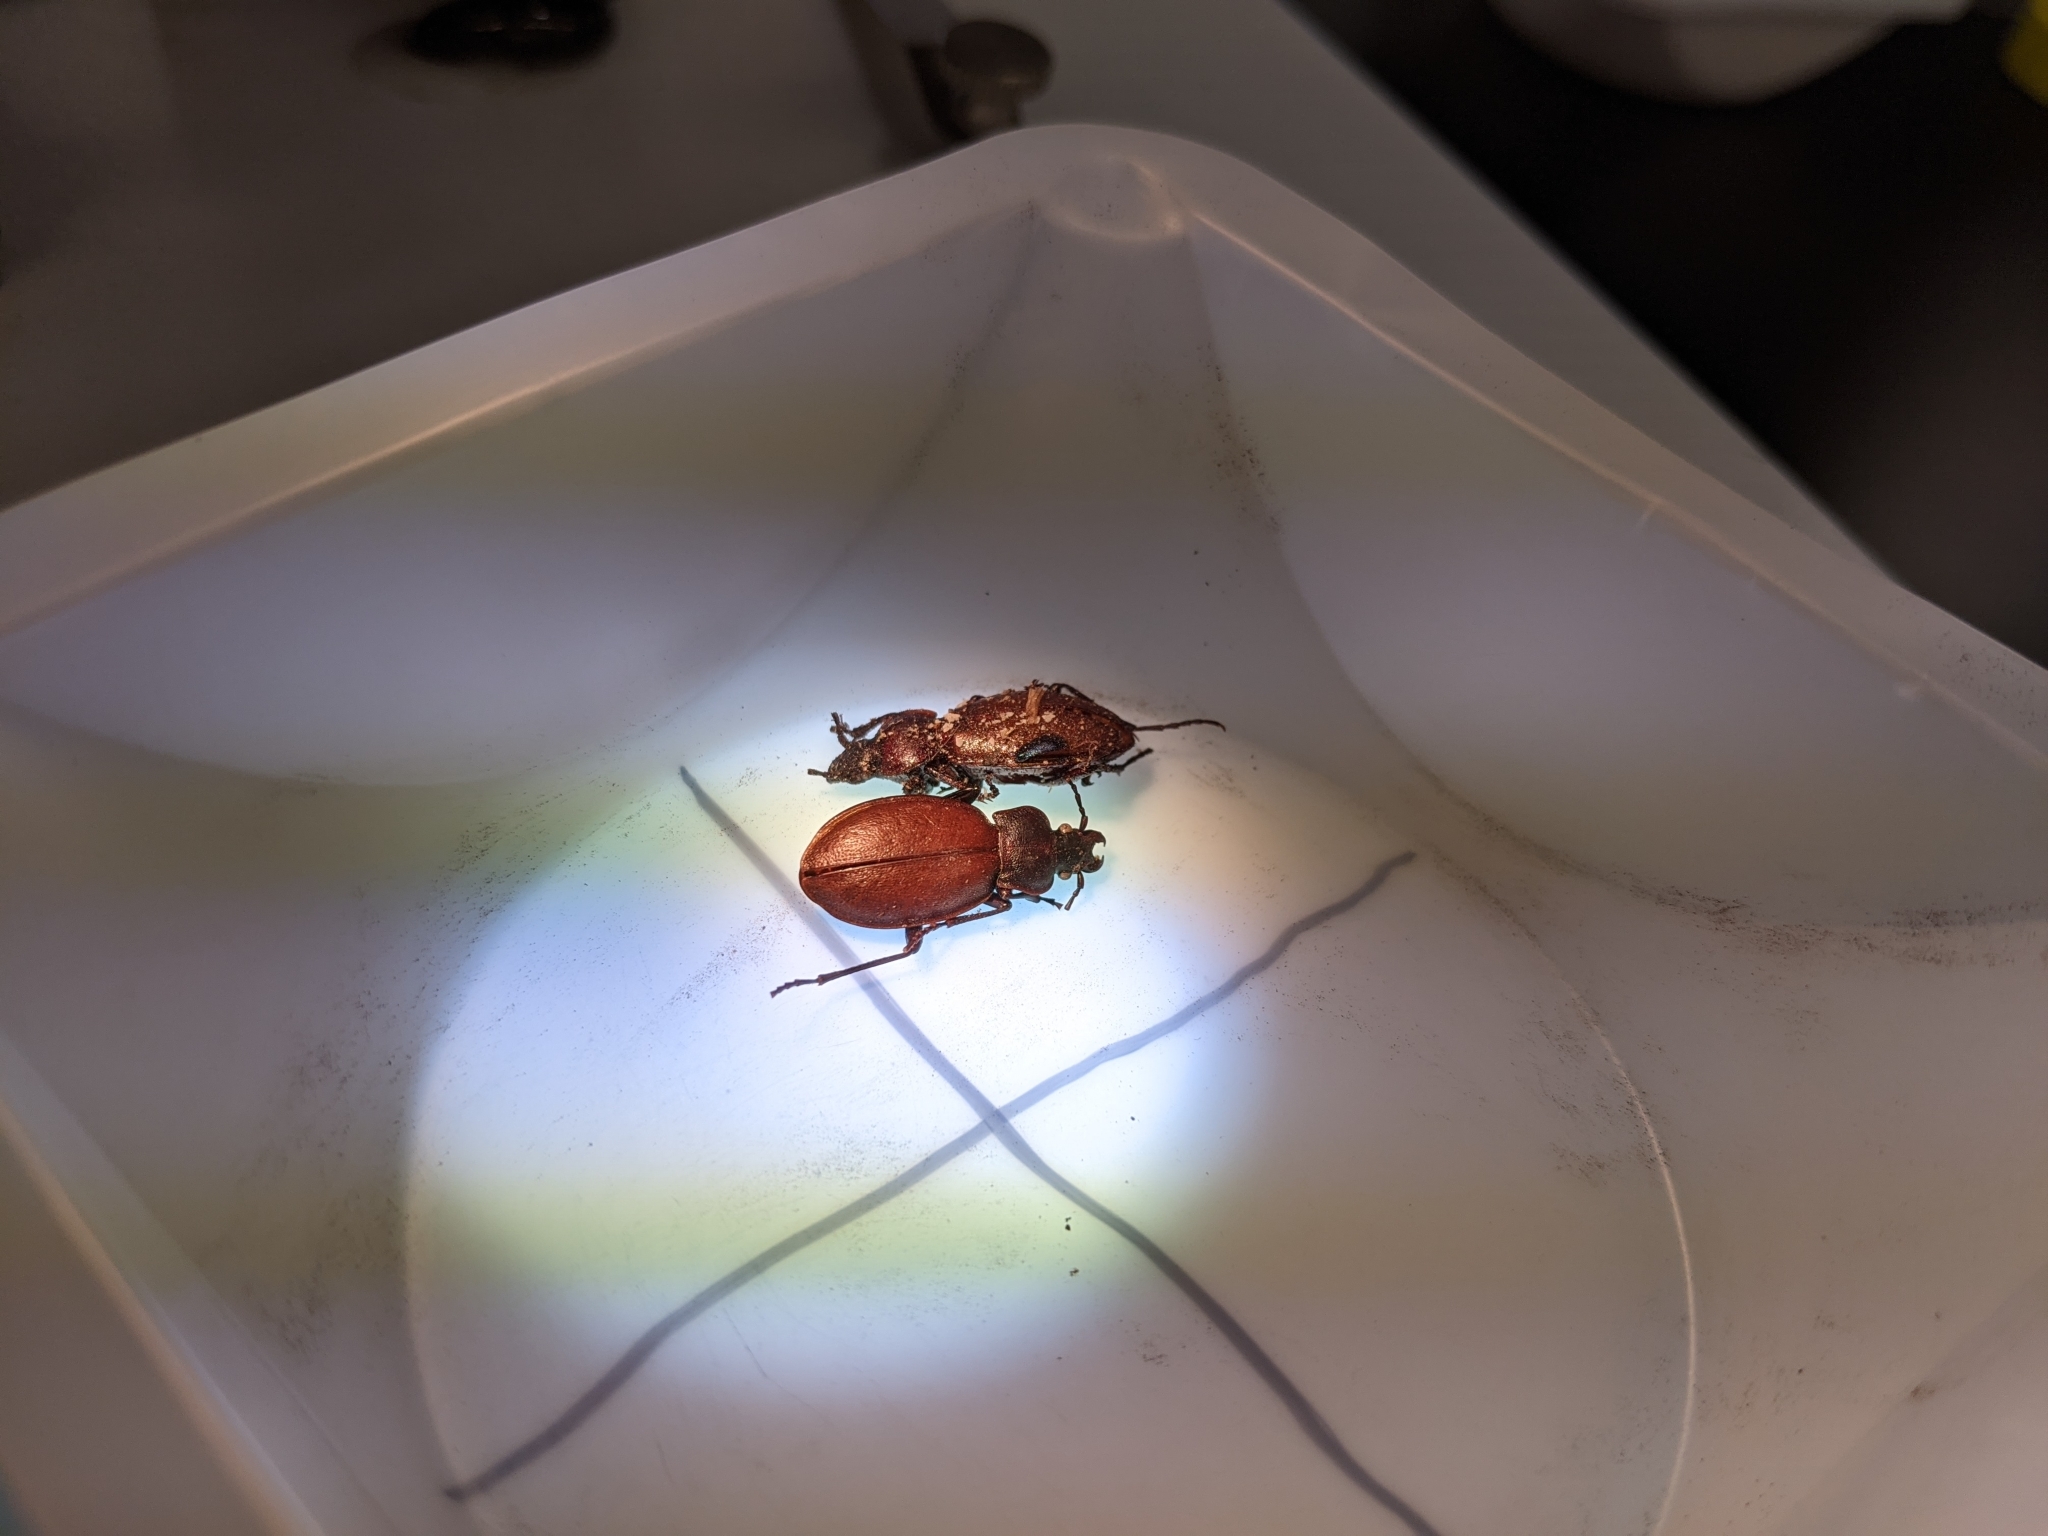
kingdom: Animalia
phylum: Arthropoda
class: Insecta
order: Coleoptera
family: Carabidae
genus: Carabus
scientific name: Carabus nemoralis
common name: European ground beetle
